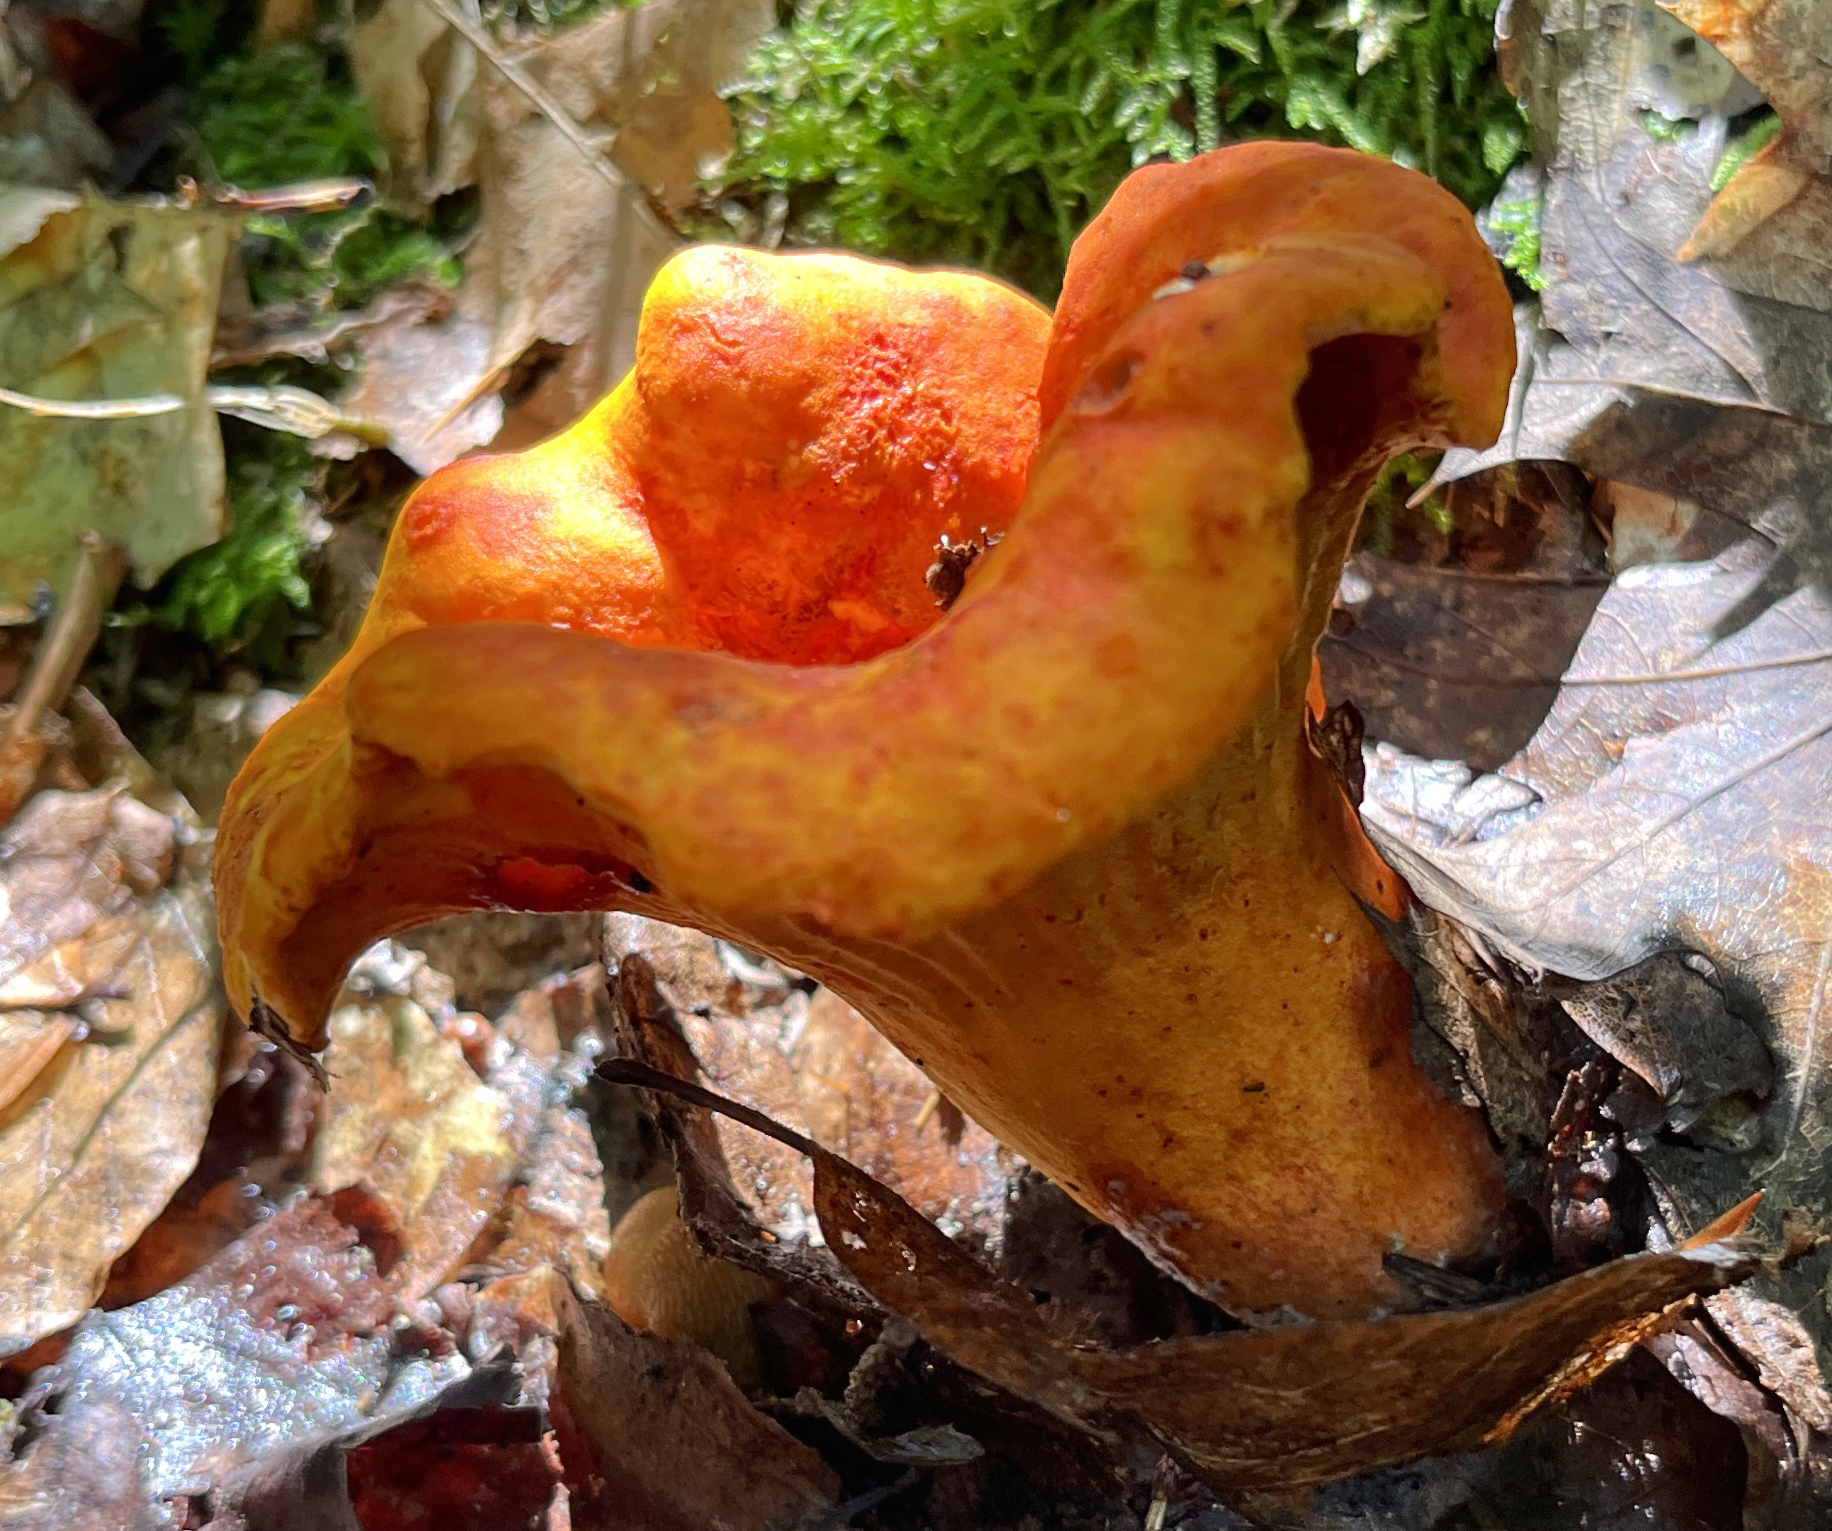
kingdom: Fungi
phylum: Ascomycota
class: Sordariomycetes
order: Hypocreales
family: Hypocreaceae
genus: Hypomyces
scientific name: Hypomyces lactifluorum
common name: Lobster mushroom
